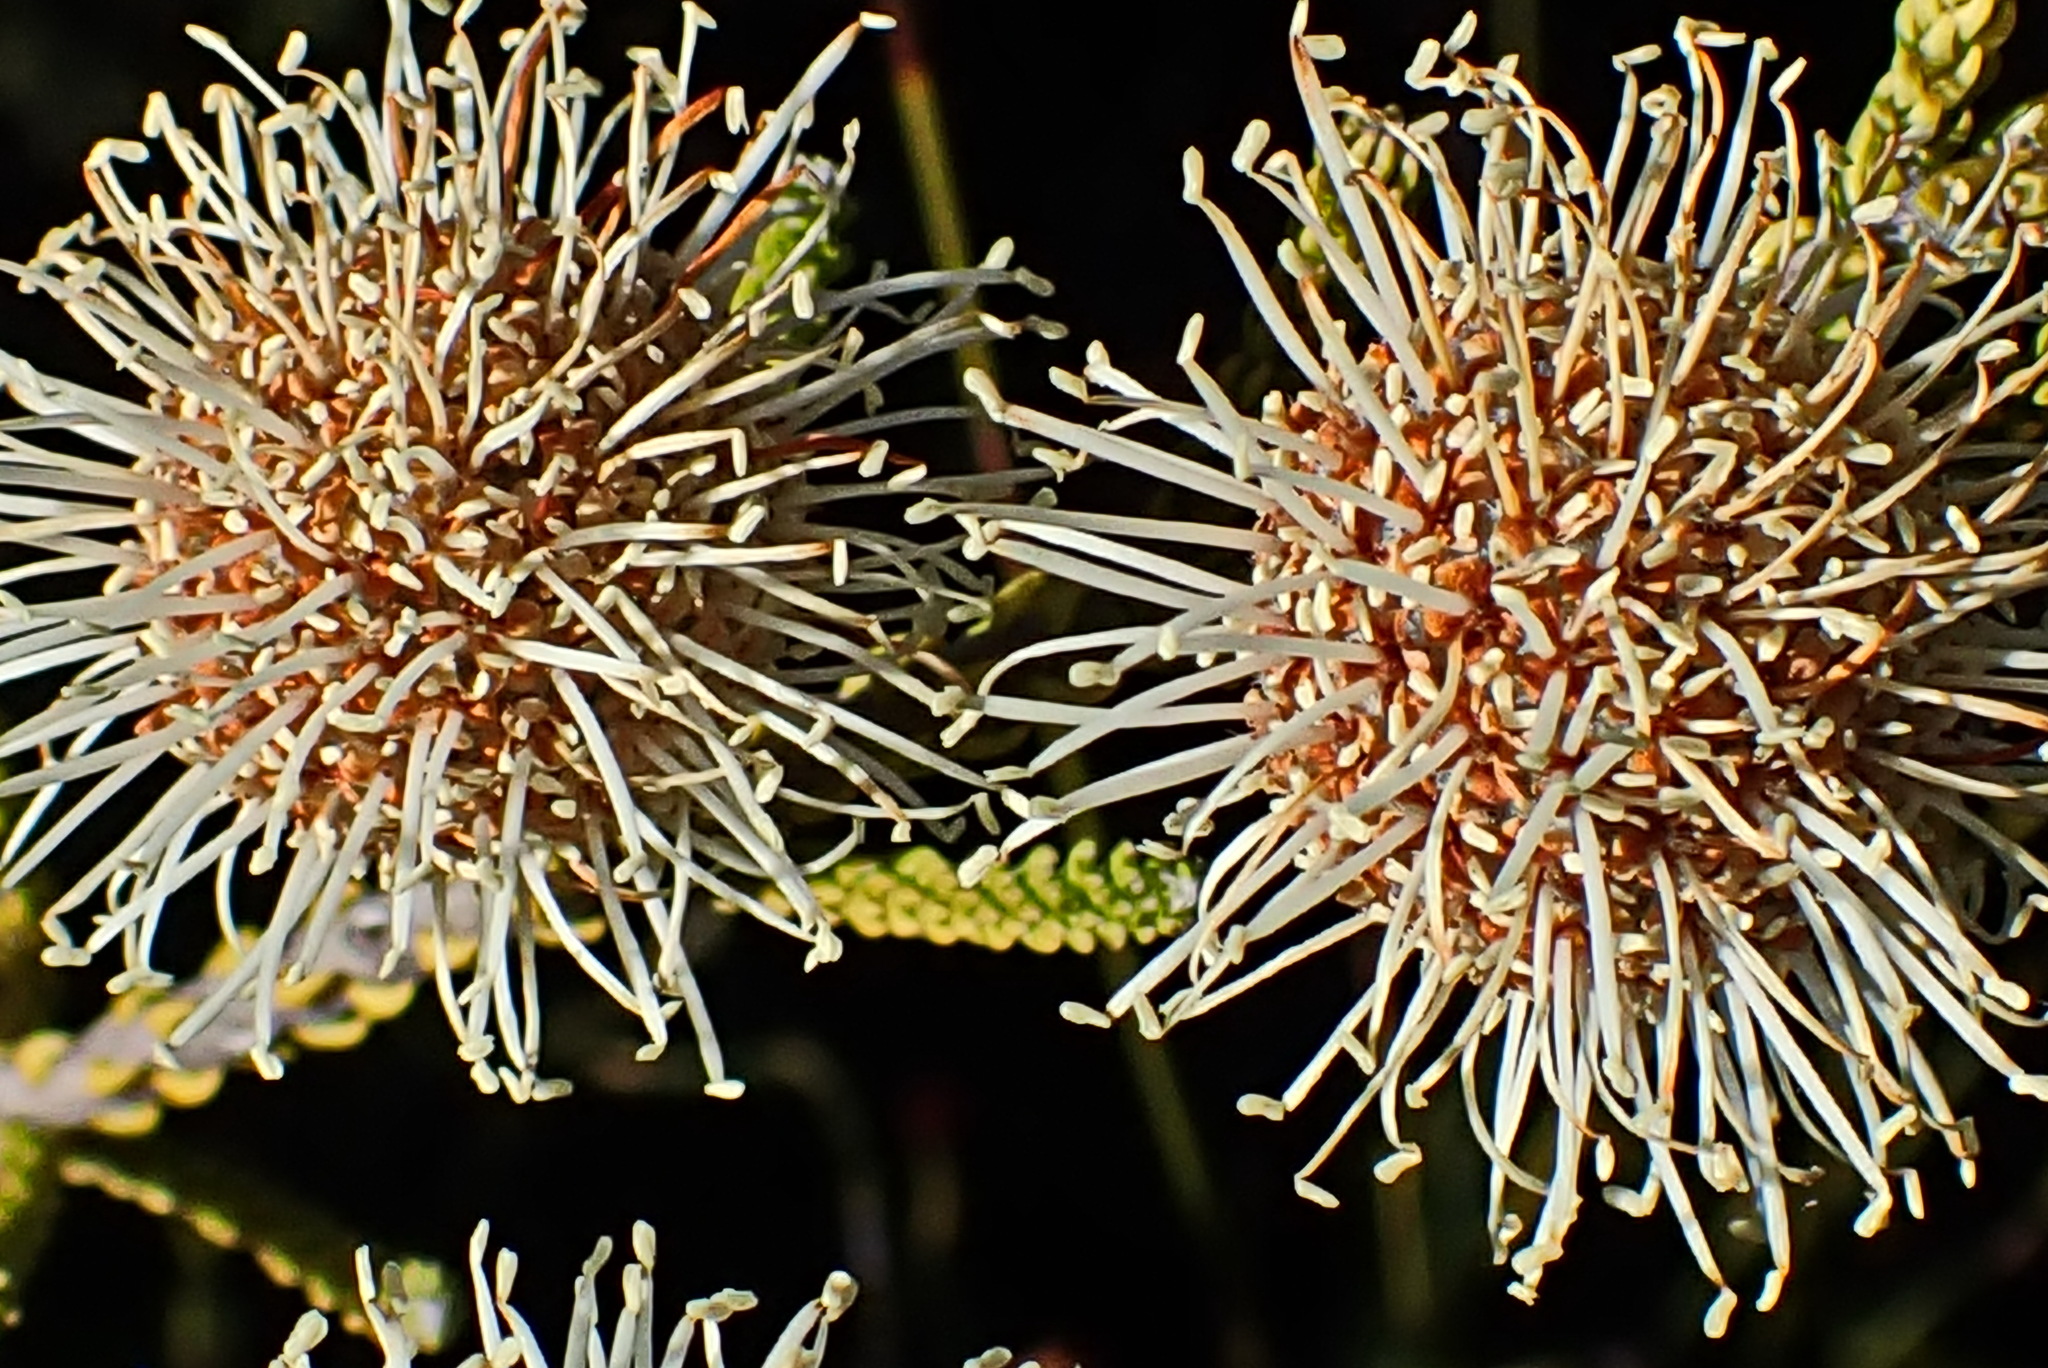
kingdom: Plantae
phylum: Tracheophyta
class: Magnoliopsida
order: Bruniales
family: Bruniaceae
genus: Brunia
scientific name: Brunia noduliflora
